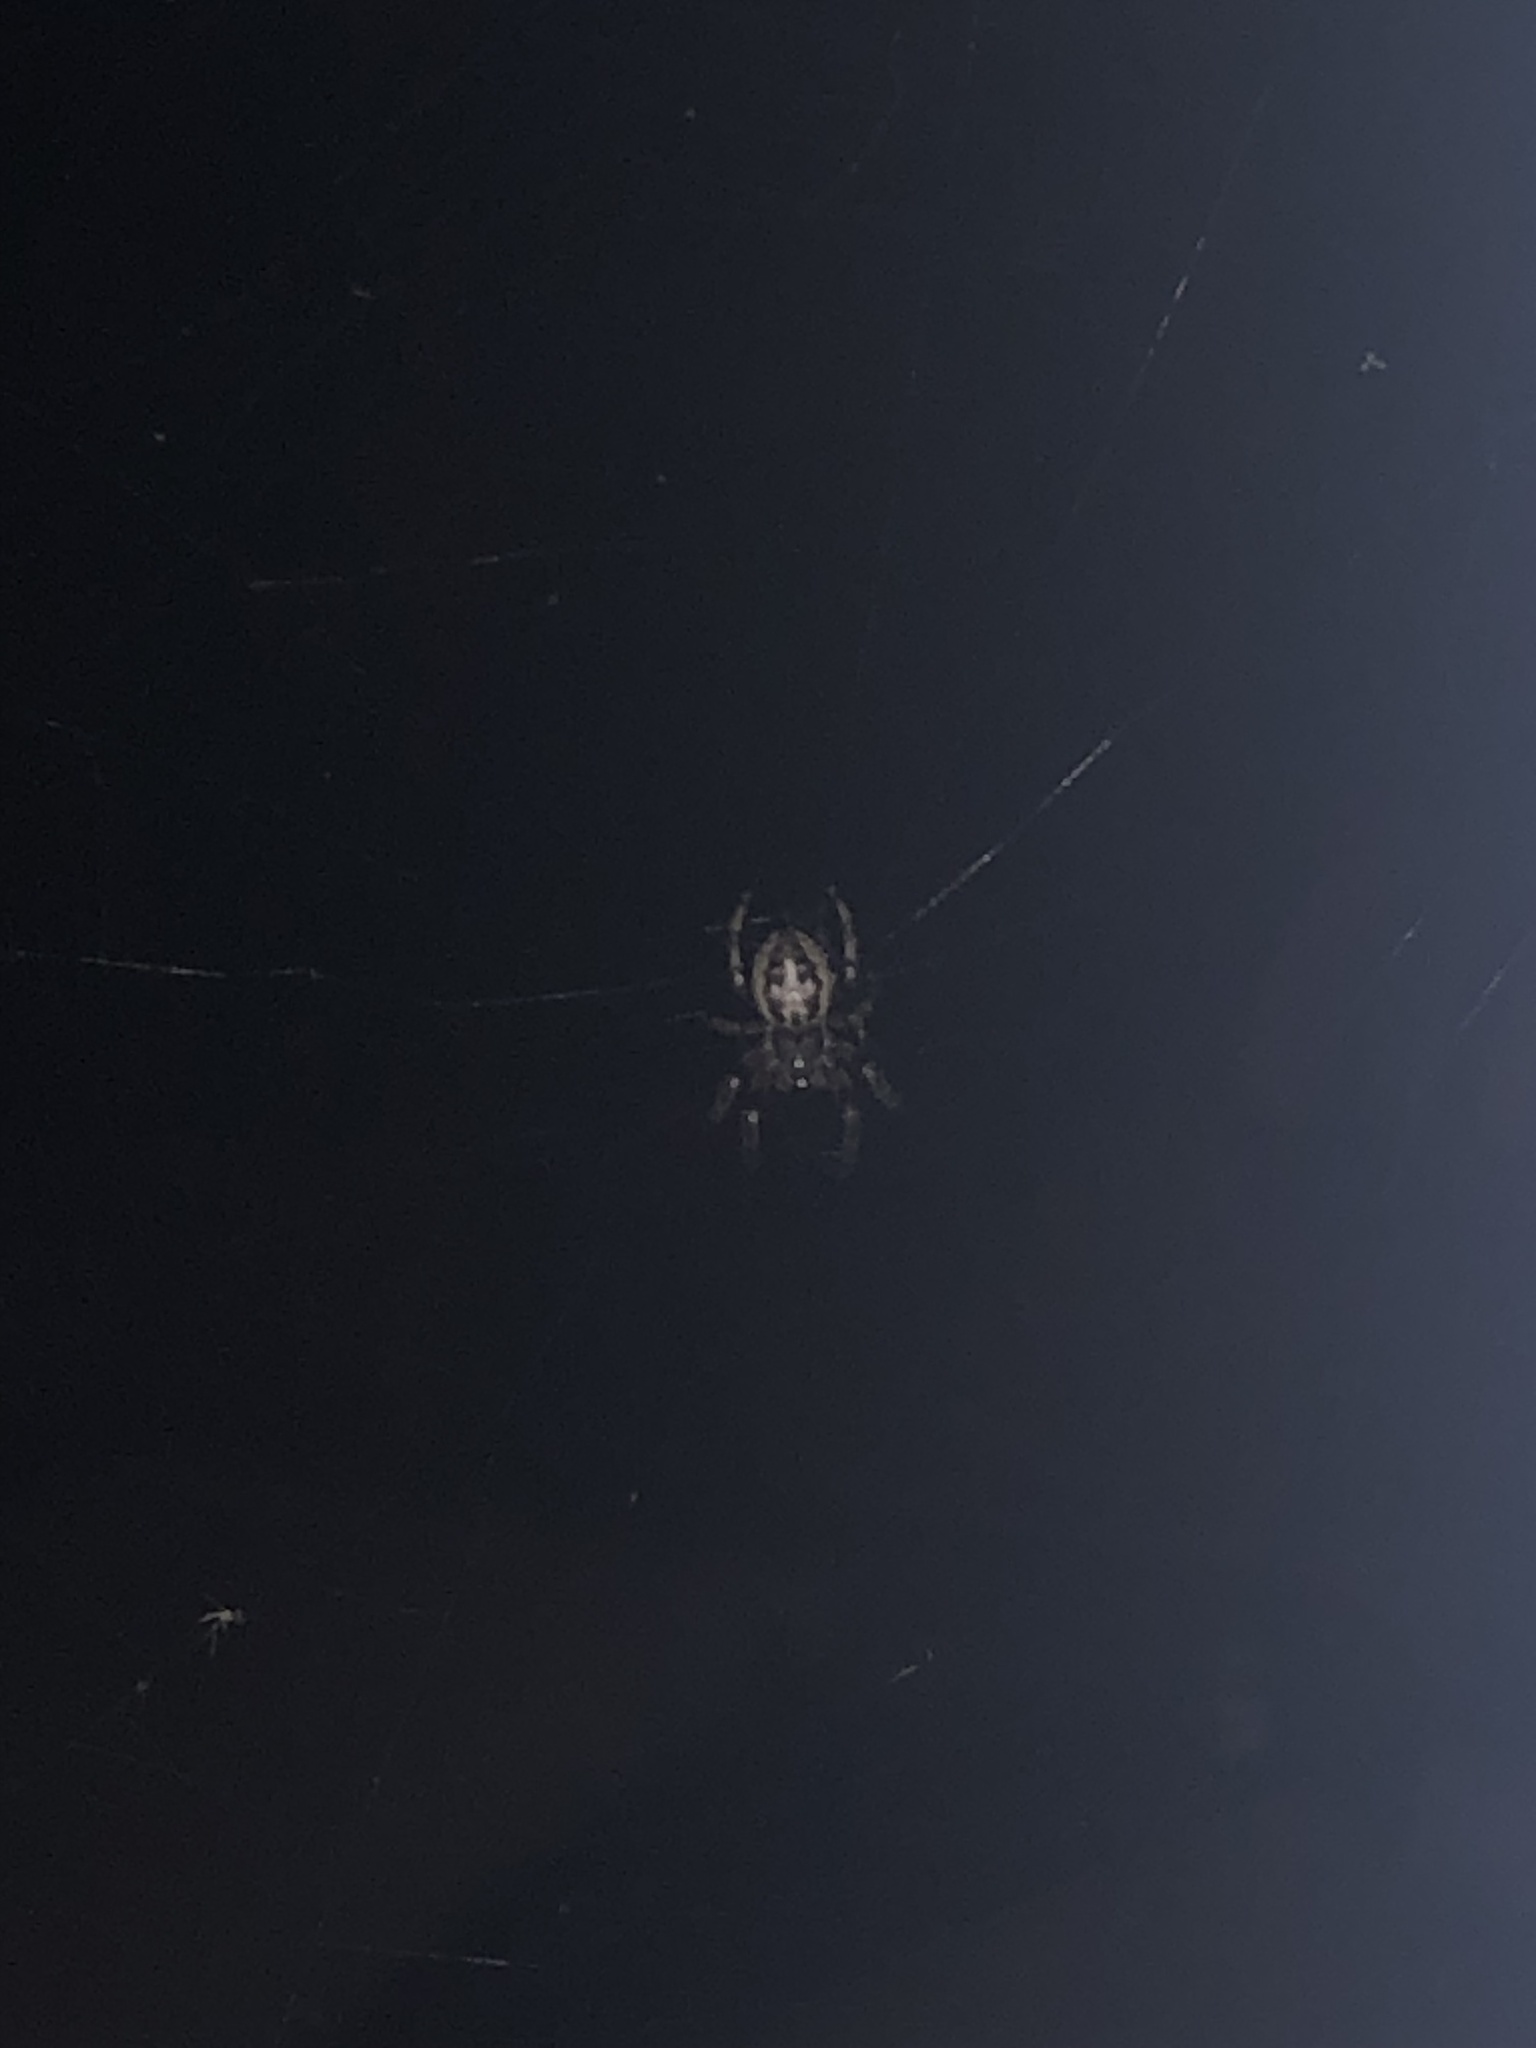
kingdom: Animalia
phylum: Arthropoda
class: Arachnida
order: Araneae
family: Araneidae
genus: Larinioides
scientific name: Larinioides cornutus
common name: Furrow orbweaver
